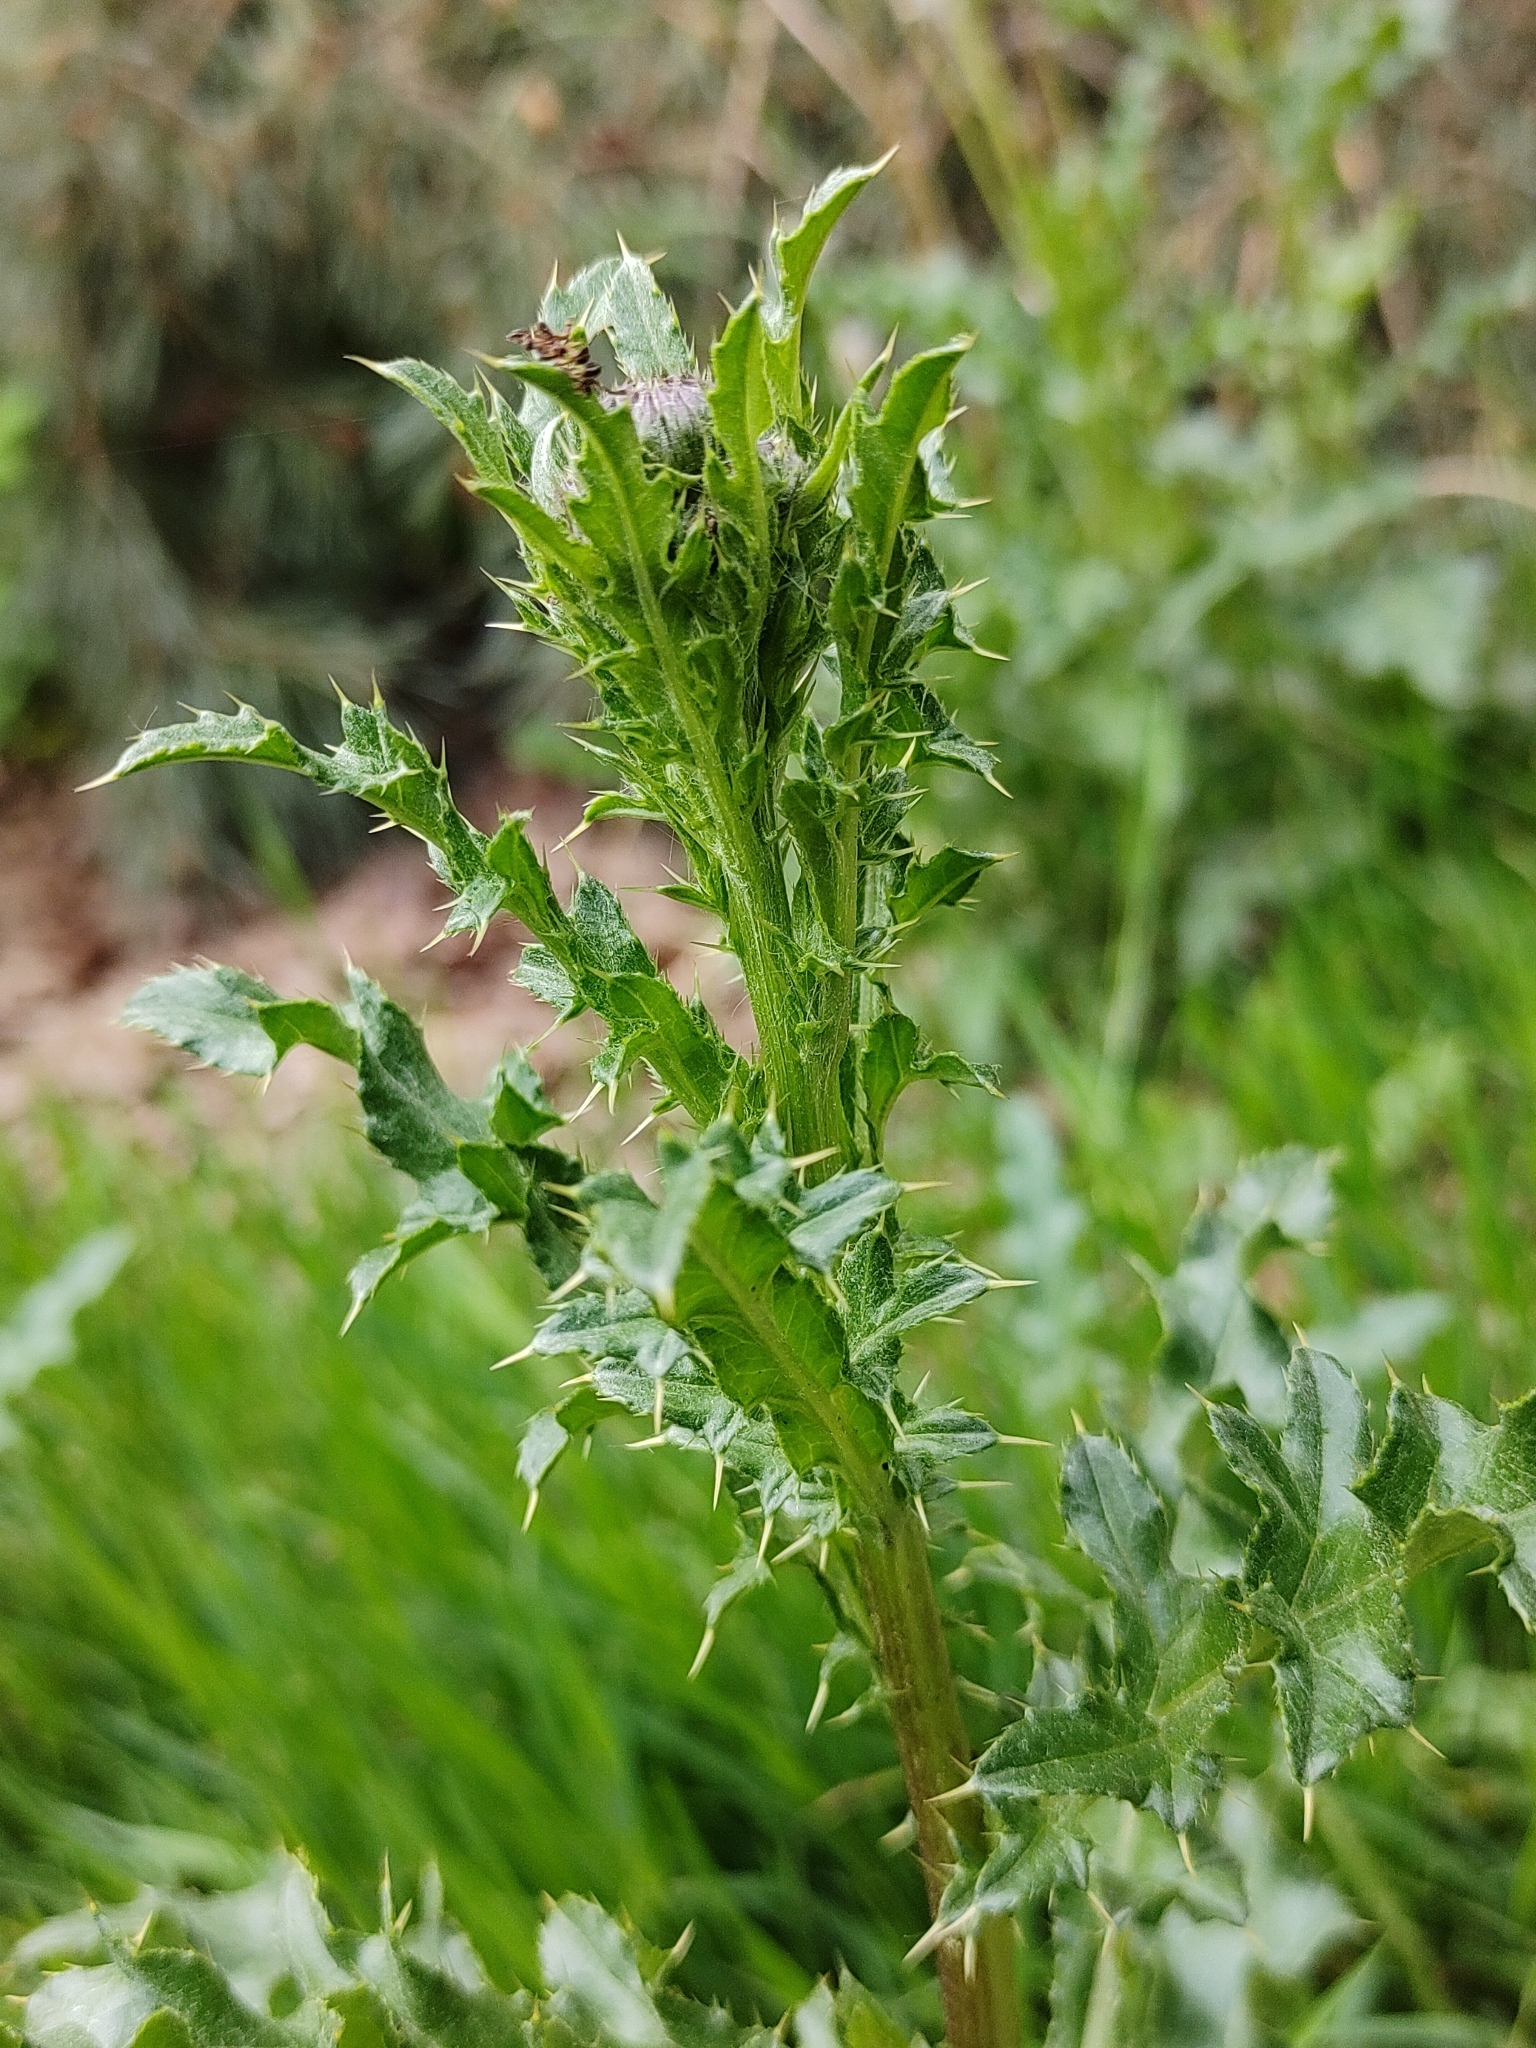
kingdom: Plantae
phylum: Tracheophyta
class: Magnoliopsida
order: Asterales
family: Asteraceae
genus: Cirsium
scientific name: Cirsium arvense
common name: Creeping thistle
